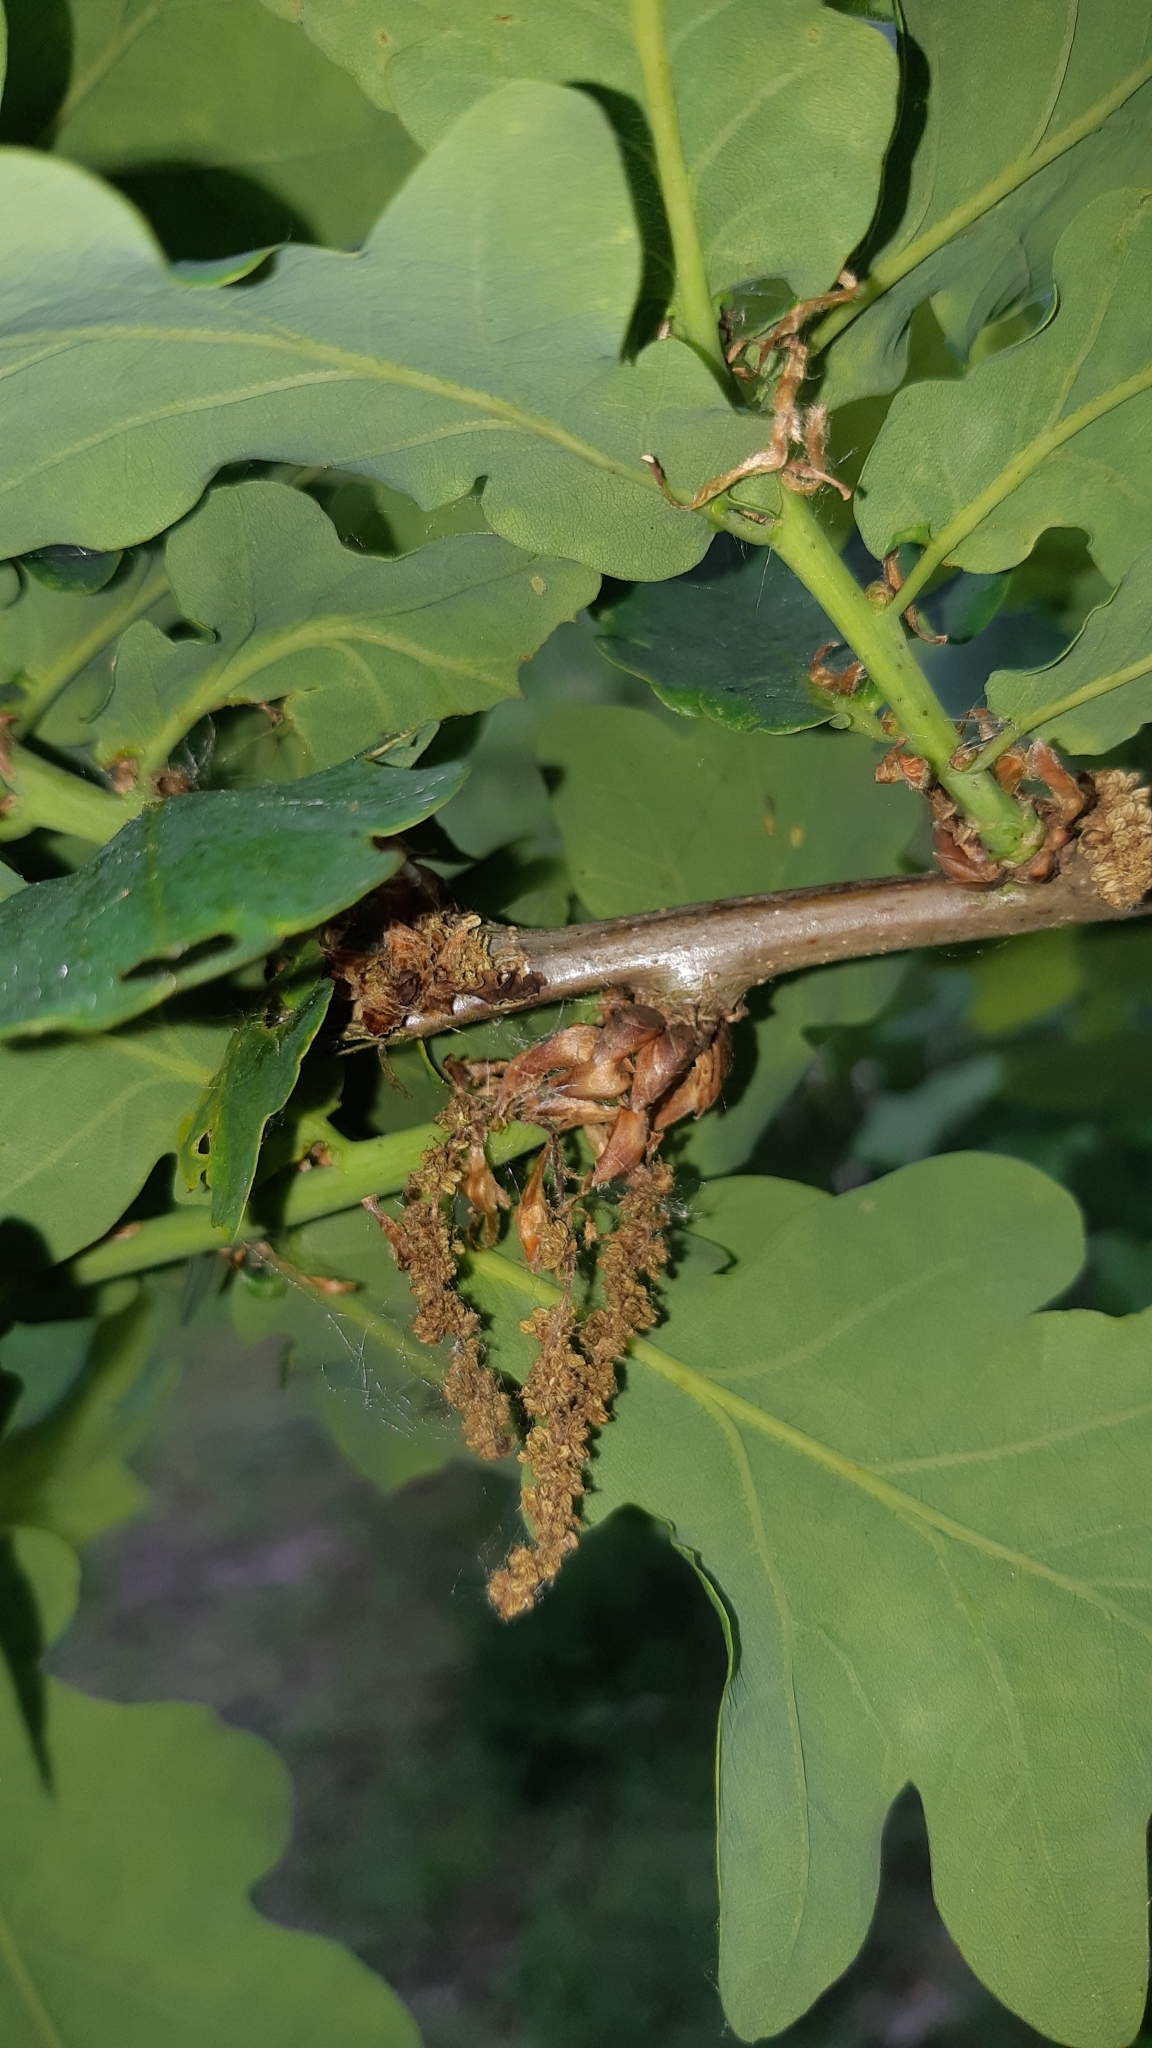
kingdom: Plantae
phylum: Tracheophyta
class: Magnoliopsida
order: Fagales
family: Fagaceae
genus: Quercus
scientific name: Quercus robur
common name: Pedunculate oak
